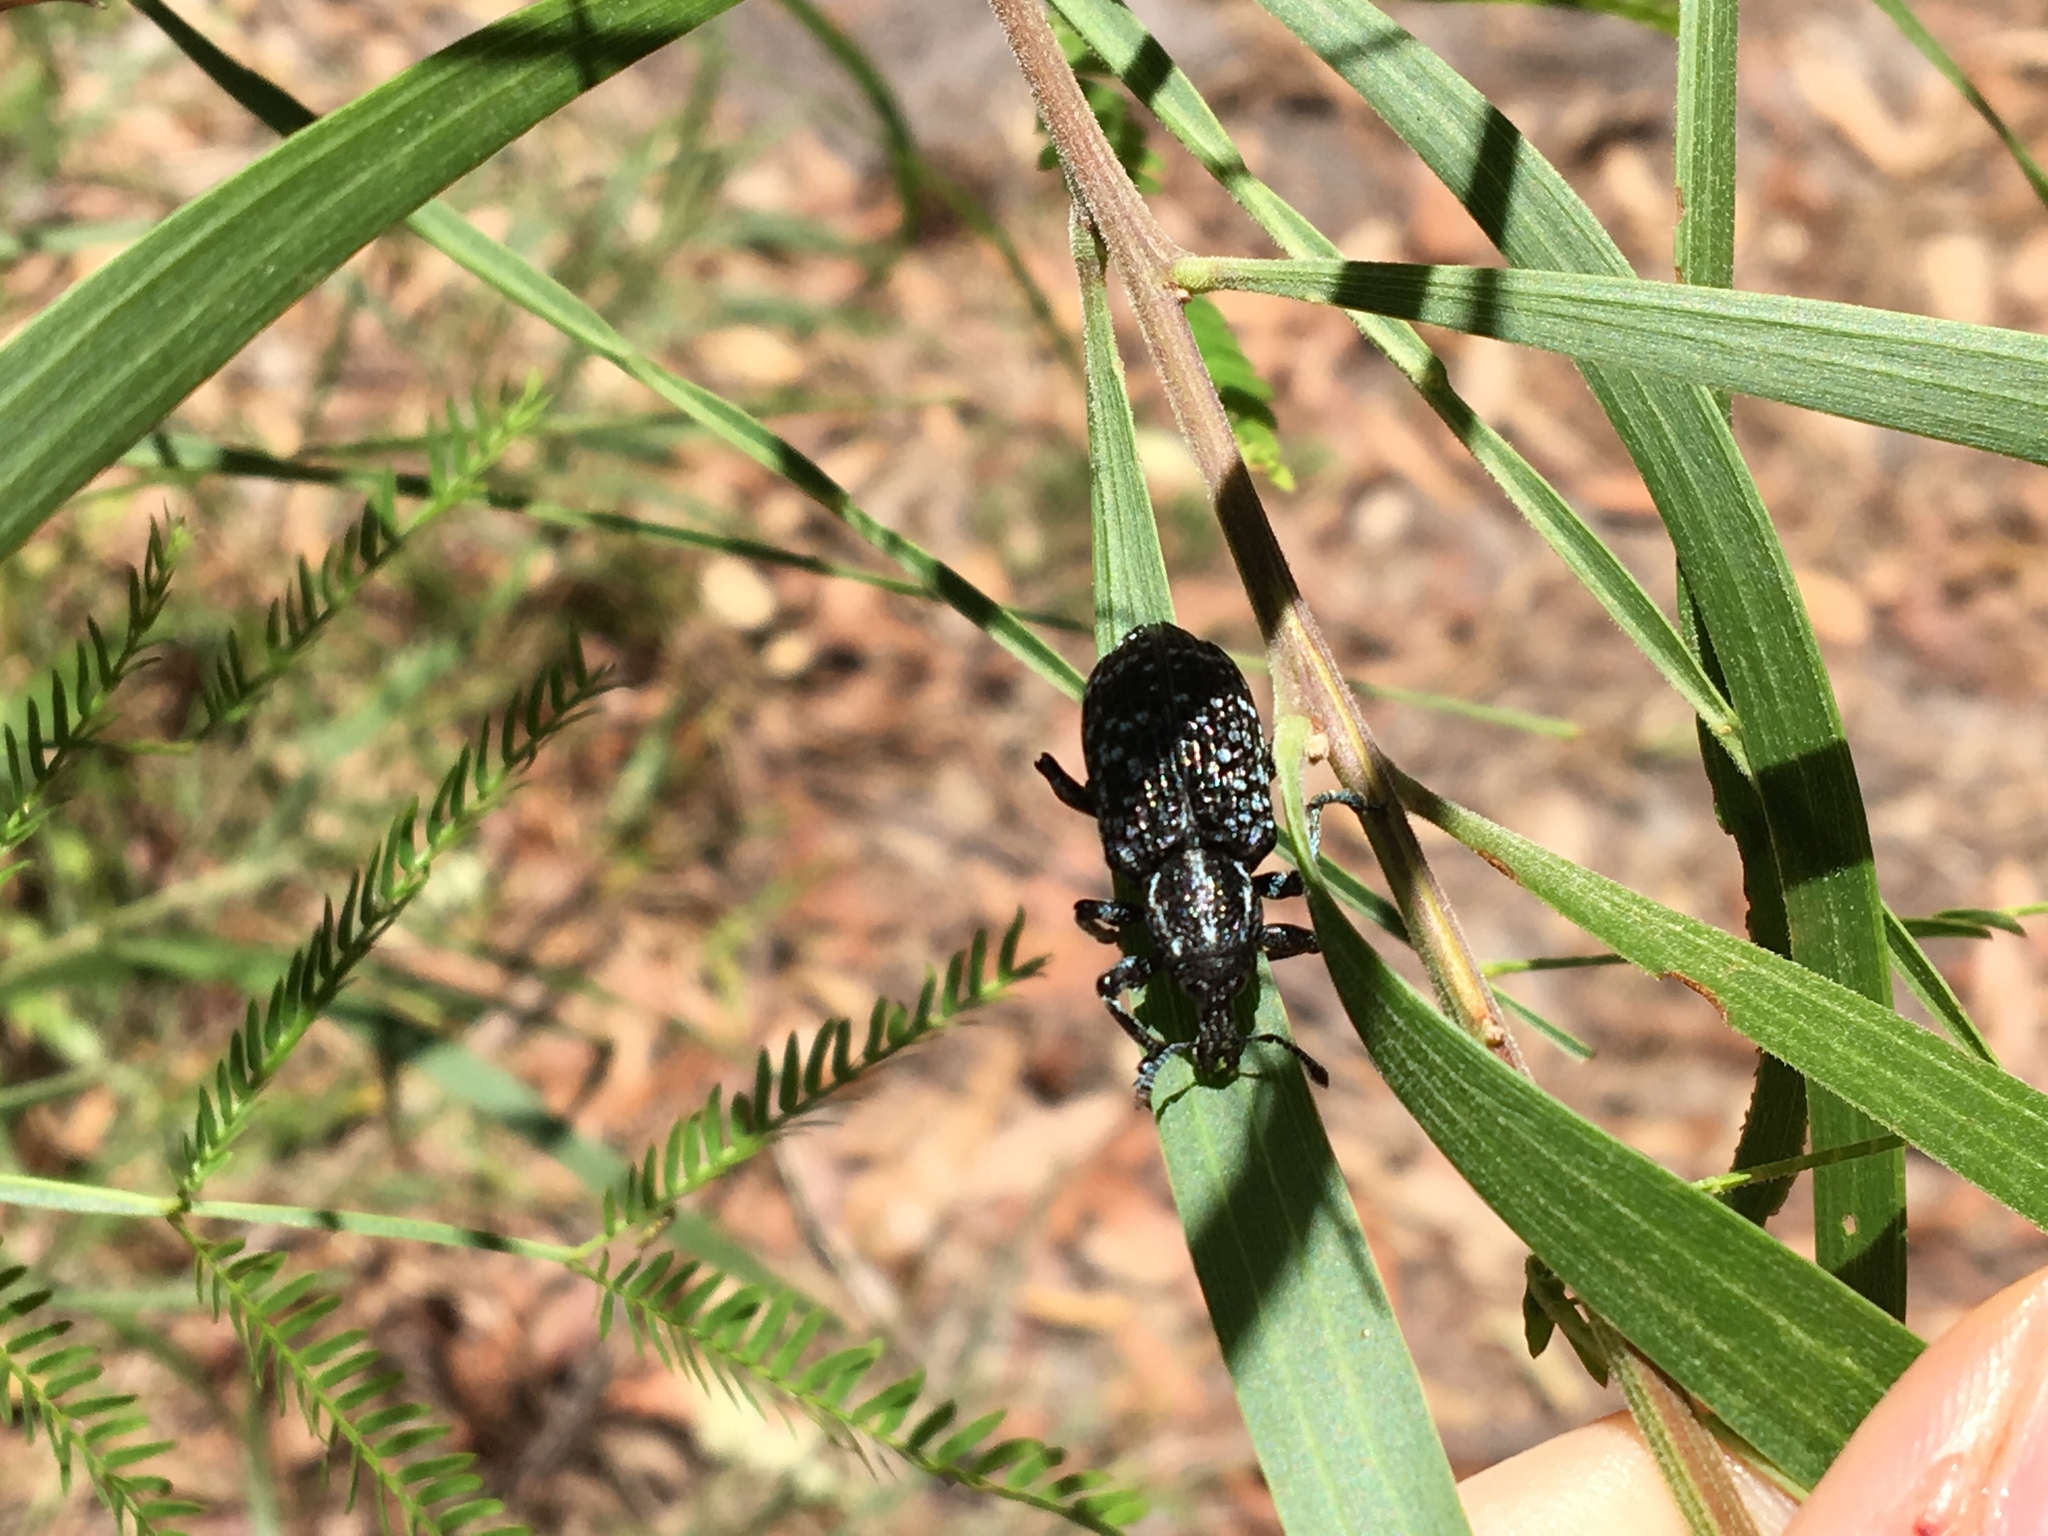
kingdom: Animalia
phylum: Arthropoda
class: Insecta
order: Coleoptera
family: Curculionidae
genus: Chrysolopus
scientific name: Chrysolopus spectabilis
